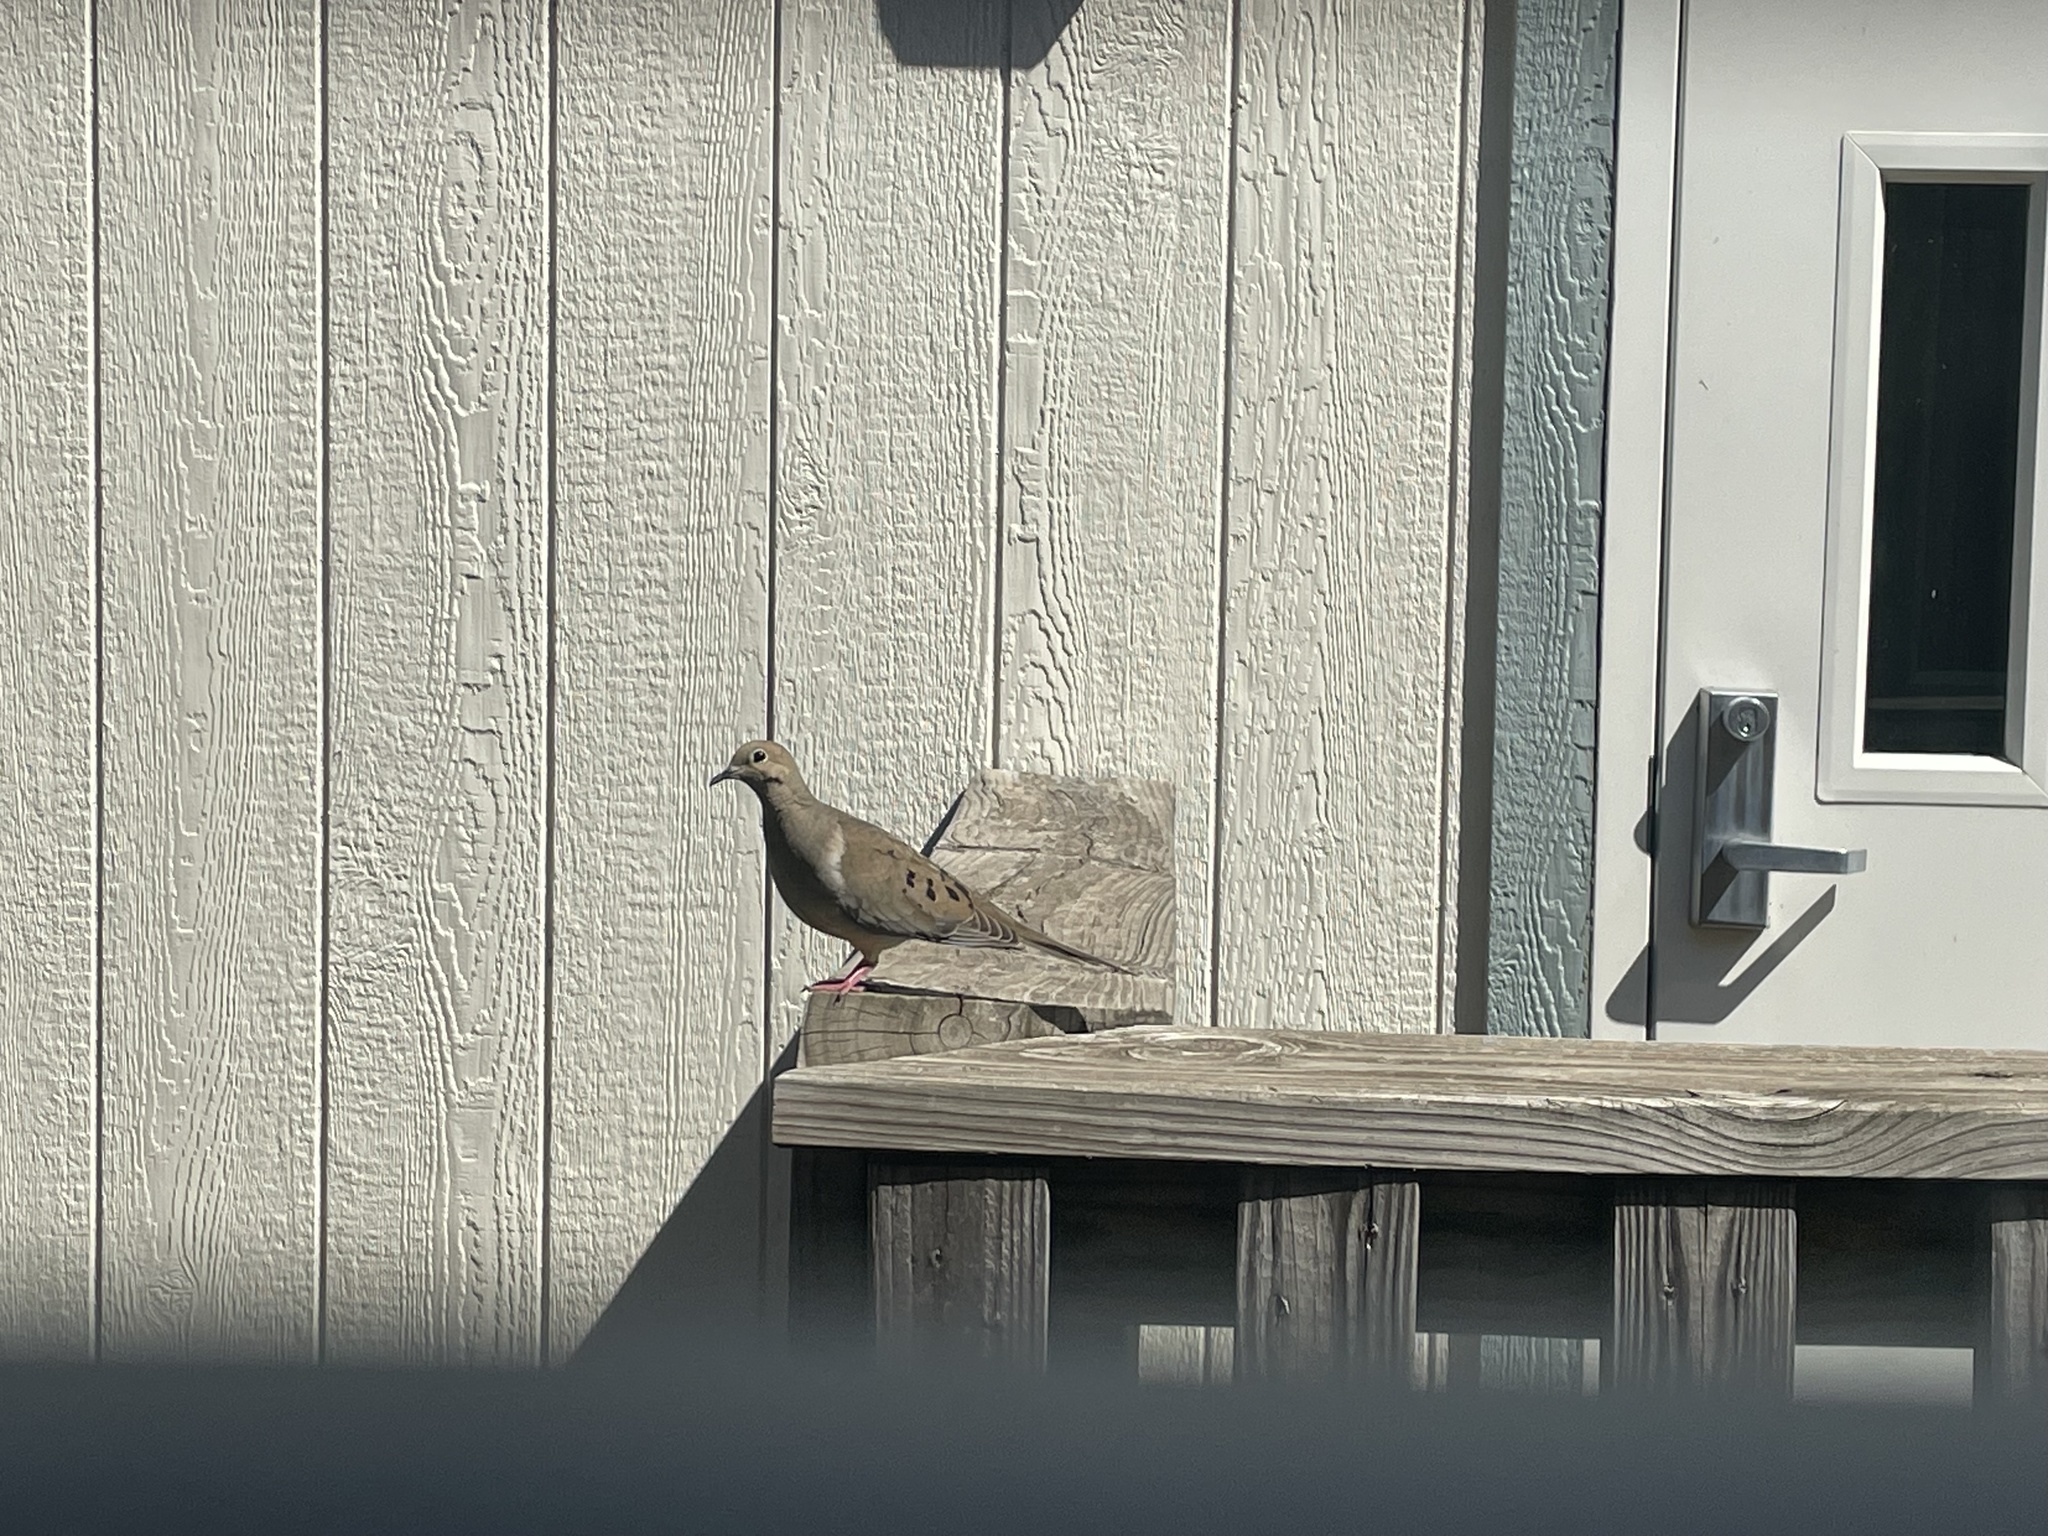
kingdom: Animalia
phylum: Chordata
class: Aves
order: Columbiformes
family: Columbidae
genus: Zenaida
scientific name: Zenaida macroura
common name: Mourning dove
